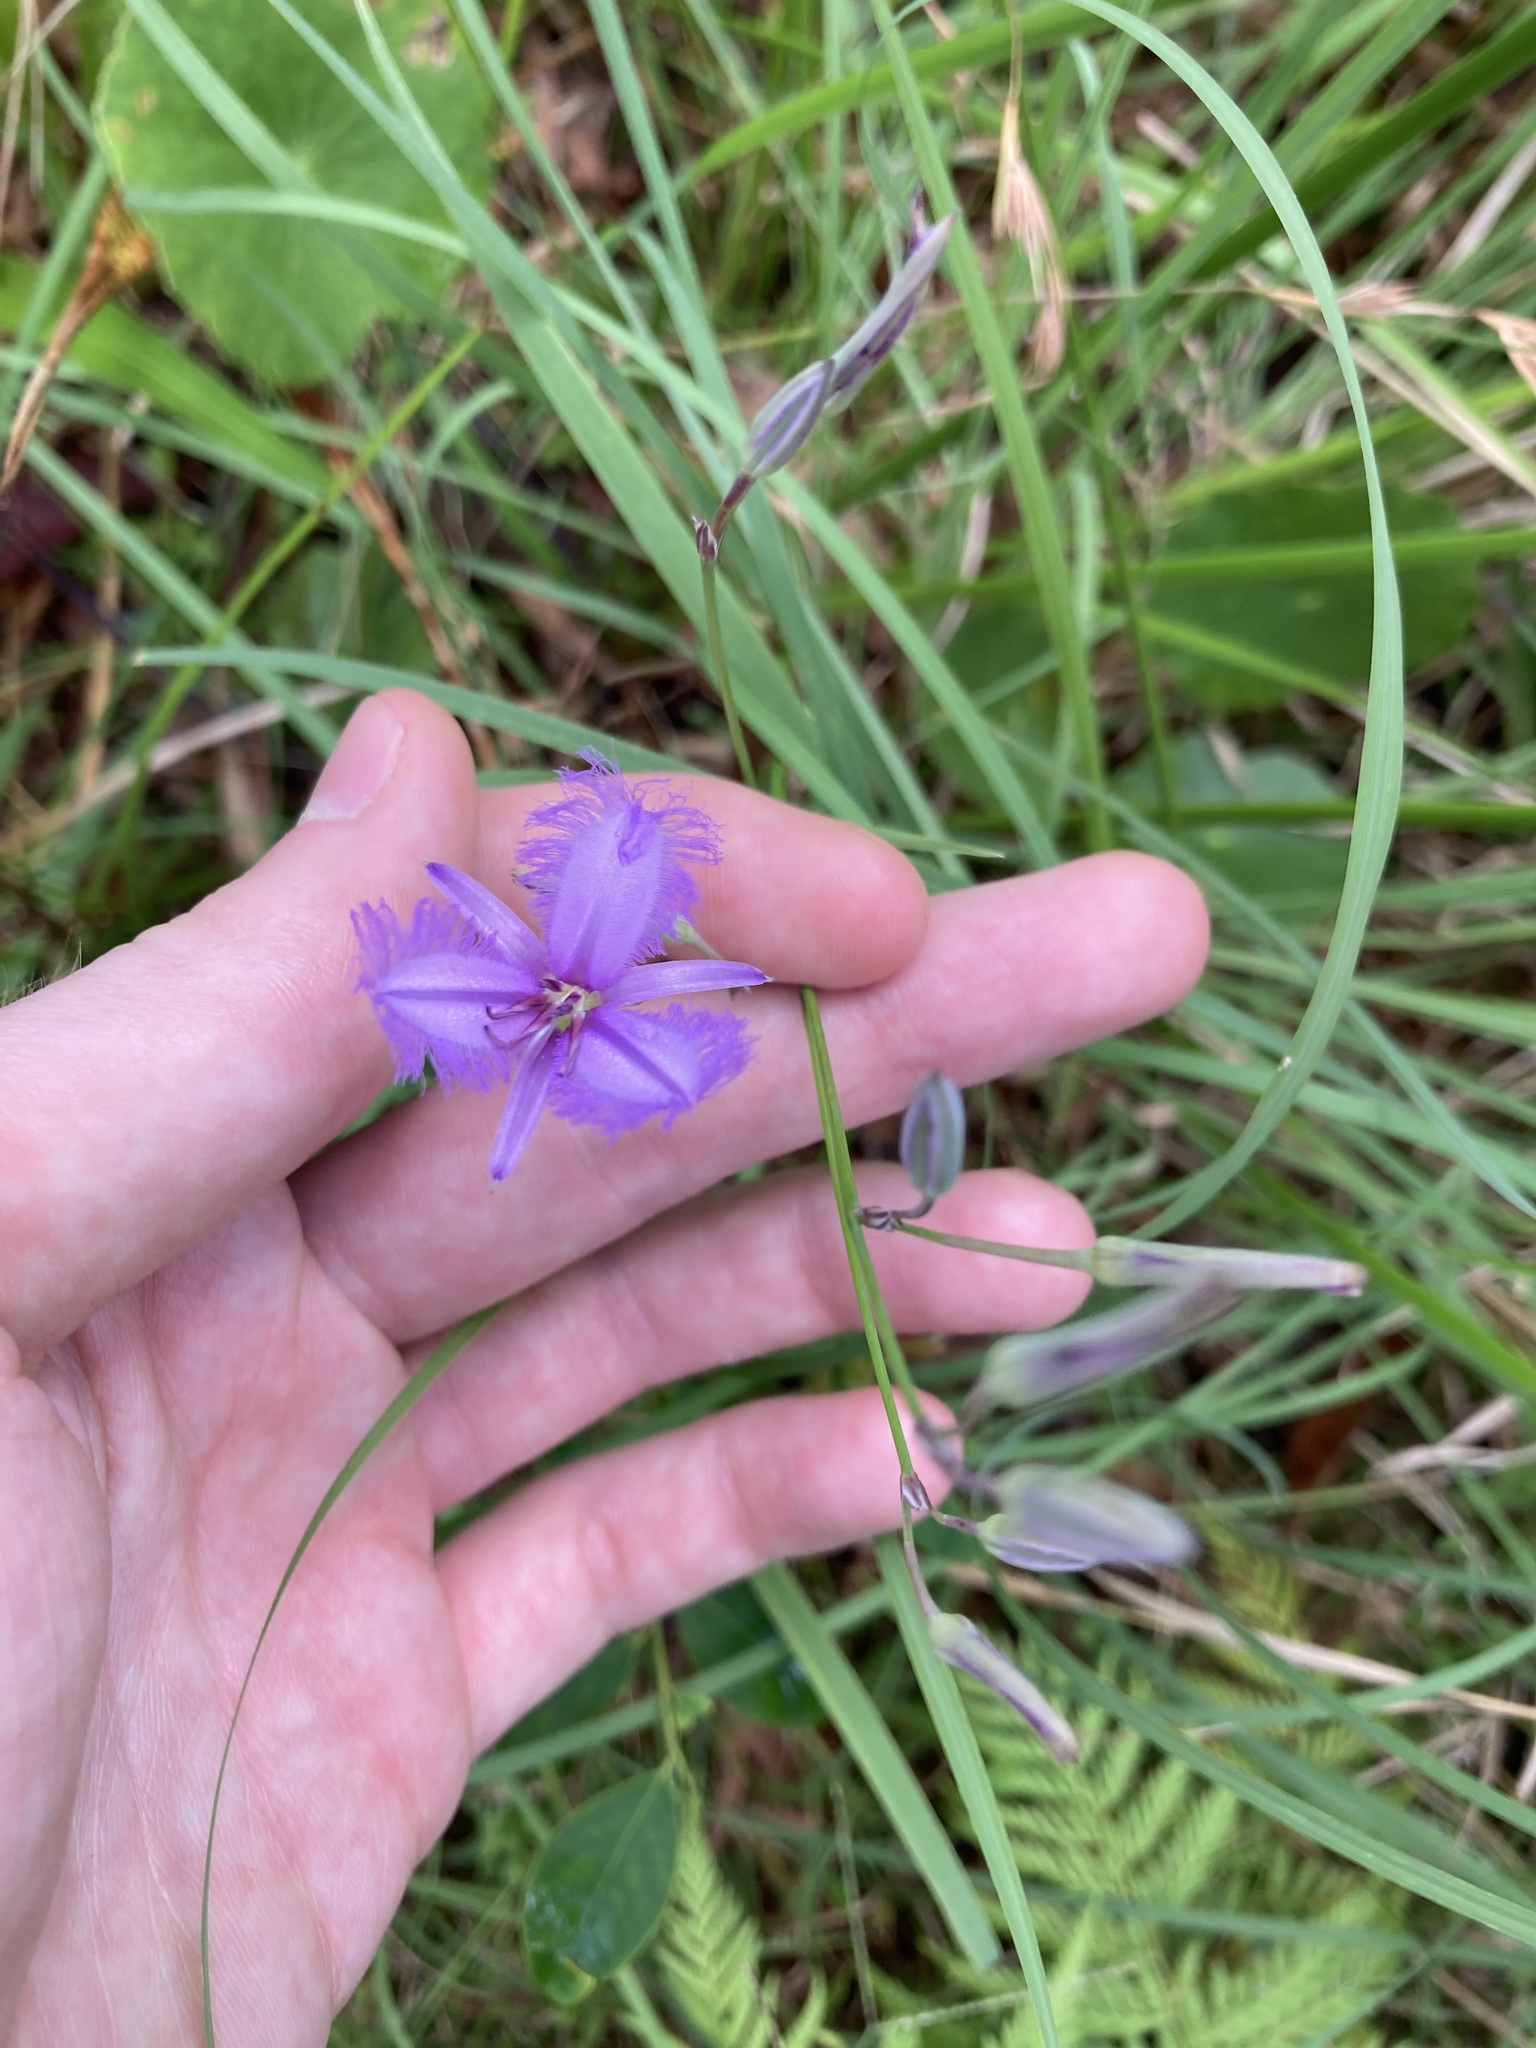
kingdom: Plantae
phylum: Tracheophyta
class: Liliopsida
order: Asparagales
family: Asparagaceae
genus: Thysanotus
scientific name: Thysanotus tuberosus
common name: Common fringed-lily
